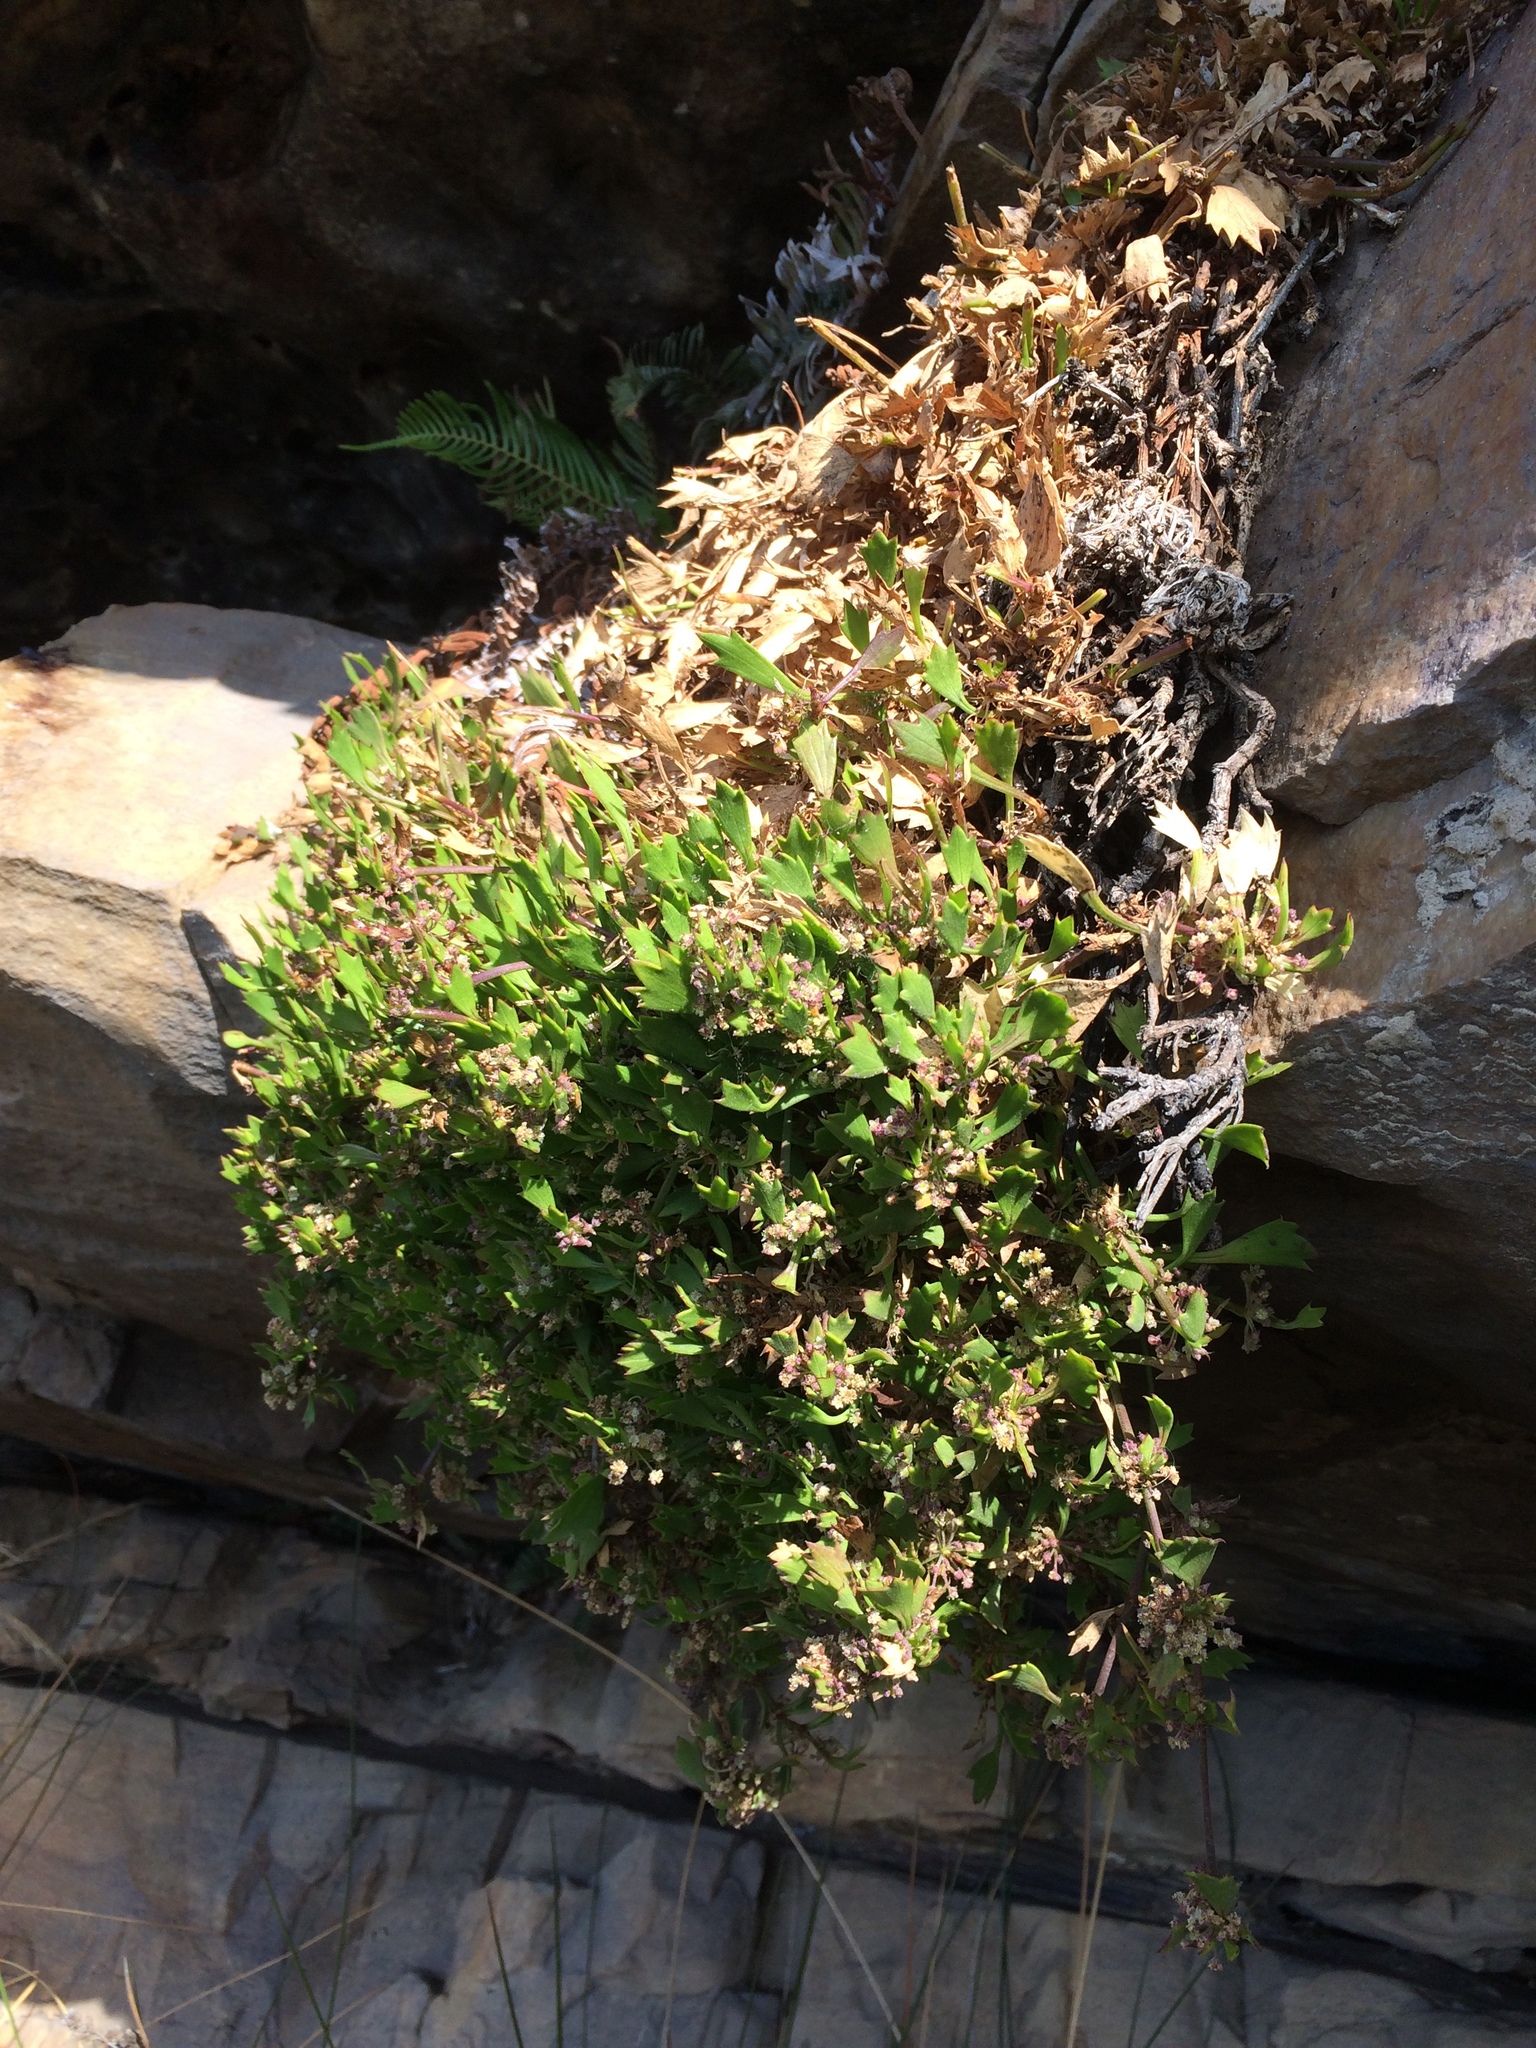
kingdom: Plantae
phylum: Tracheophyta
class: Magnoliopsida
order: Apiales
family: Apiaceae
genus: Centella
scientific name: Centella triloba
